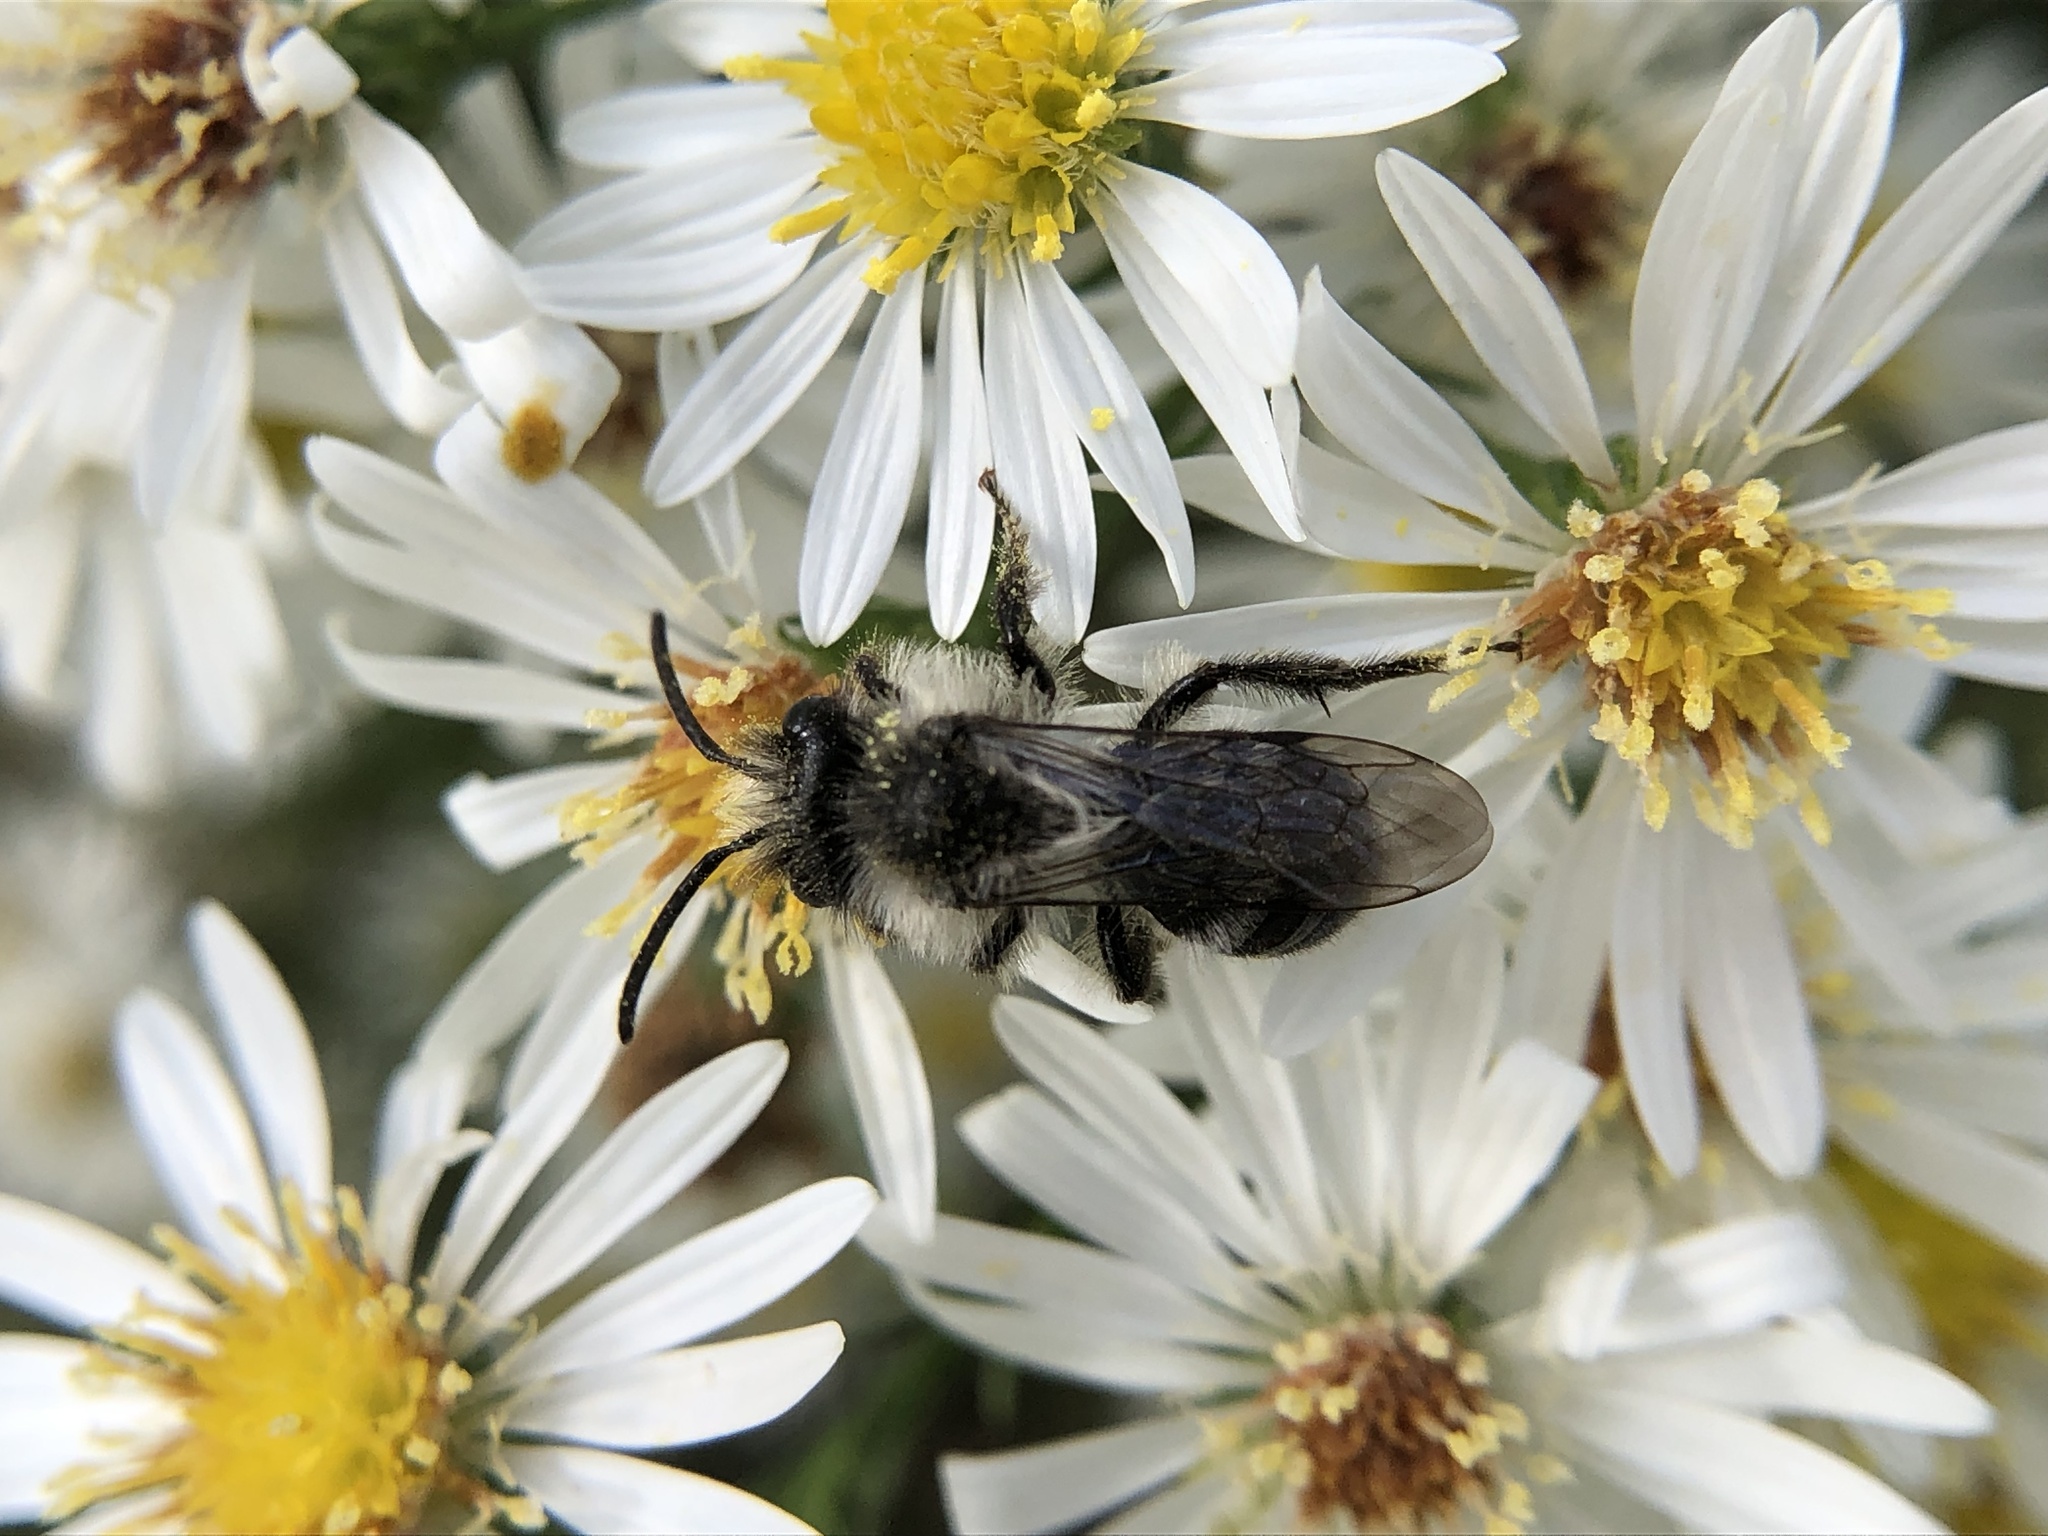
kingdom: Animalia
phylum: Arthropoda
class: Insecta
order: Hymenoptera
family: Andrenidae
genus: Andrena
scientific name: Andrena cineraria
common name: Ashy mining bee
